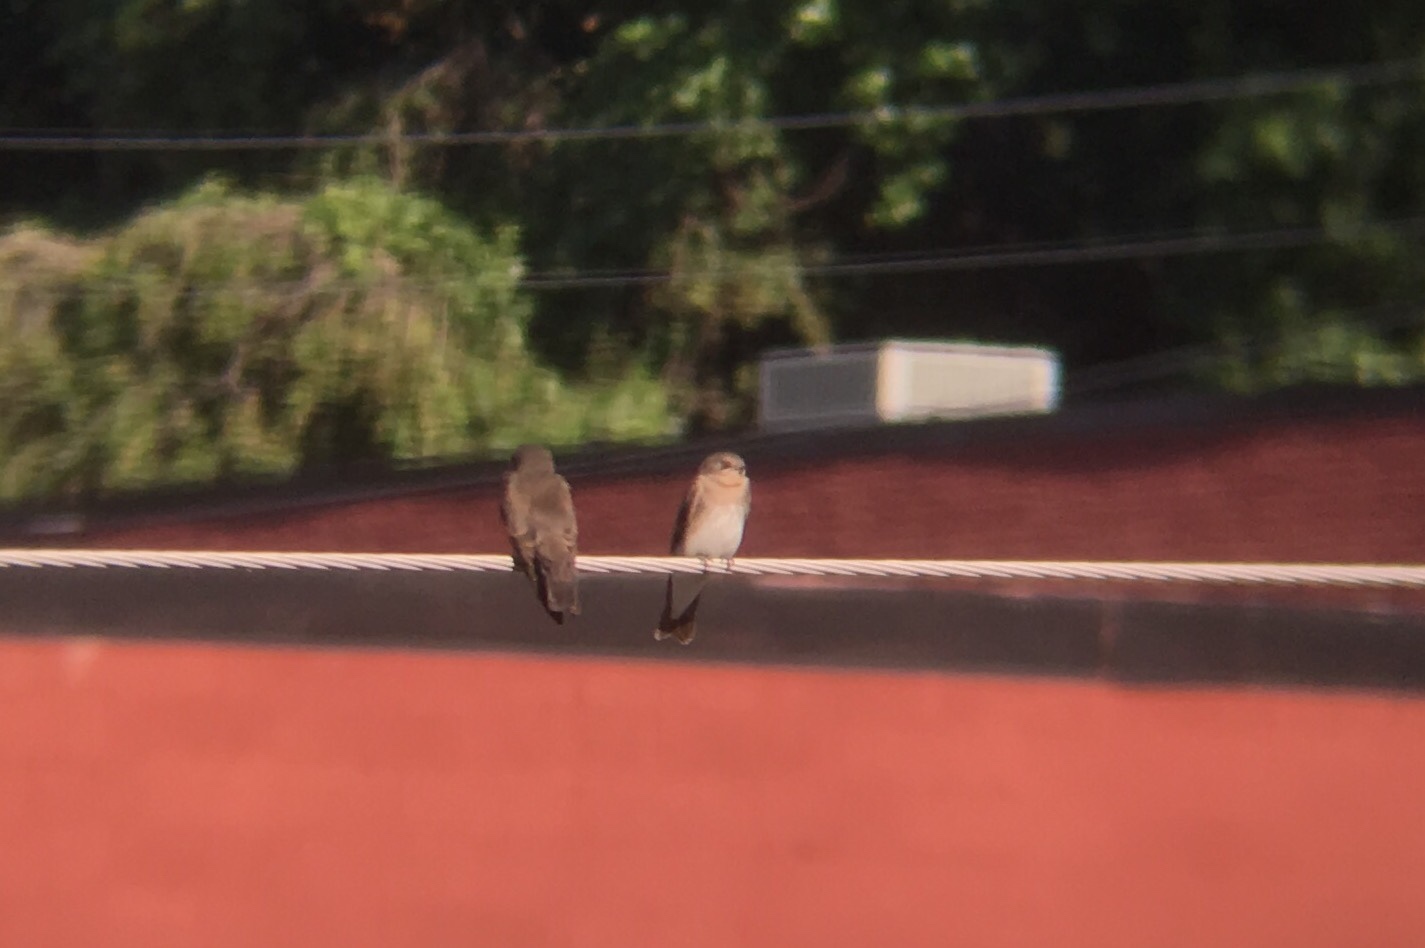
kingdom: Animalia
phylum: Chordata
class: Aves
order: Passeriformes
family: Hirundinidae
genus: Stelgidopteryx
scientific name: Stelgidopteryx serripennis
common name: Northern rough-winged swallow
